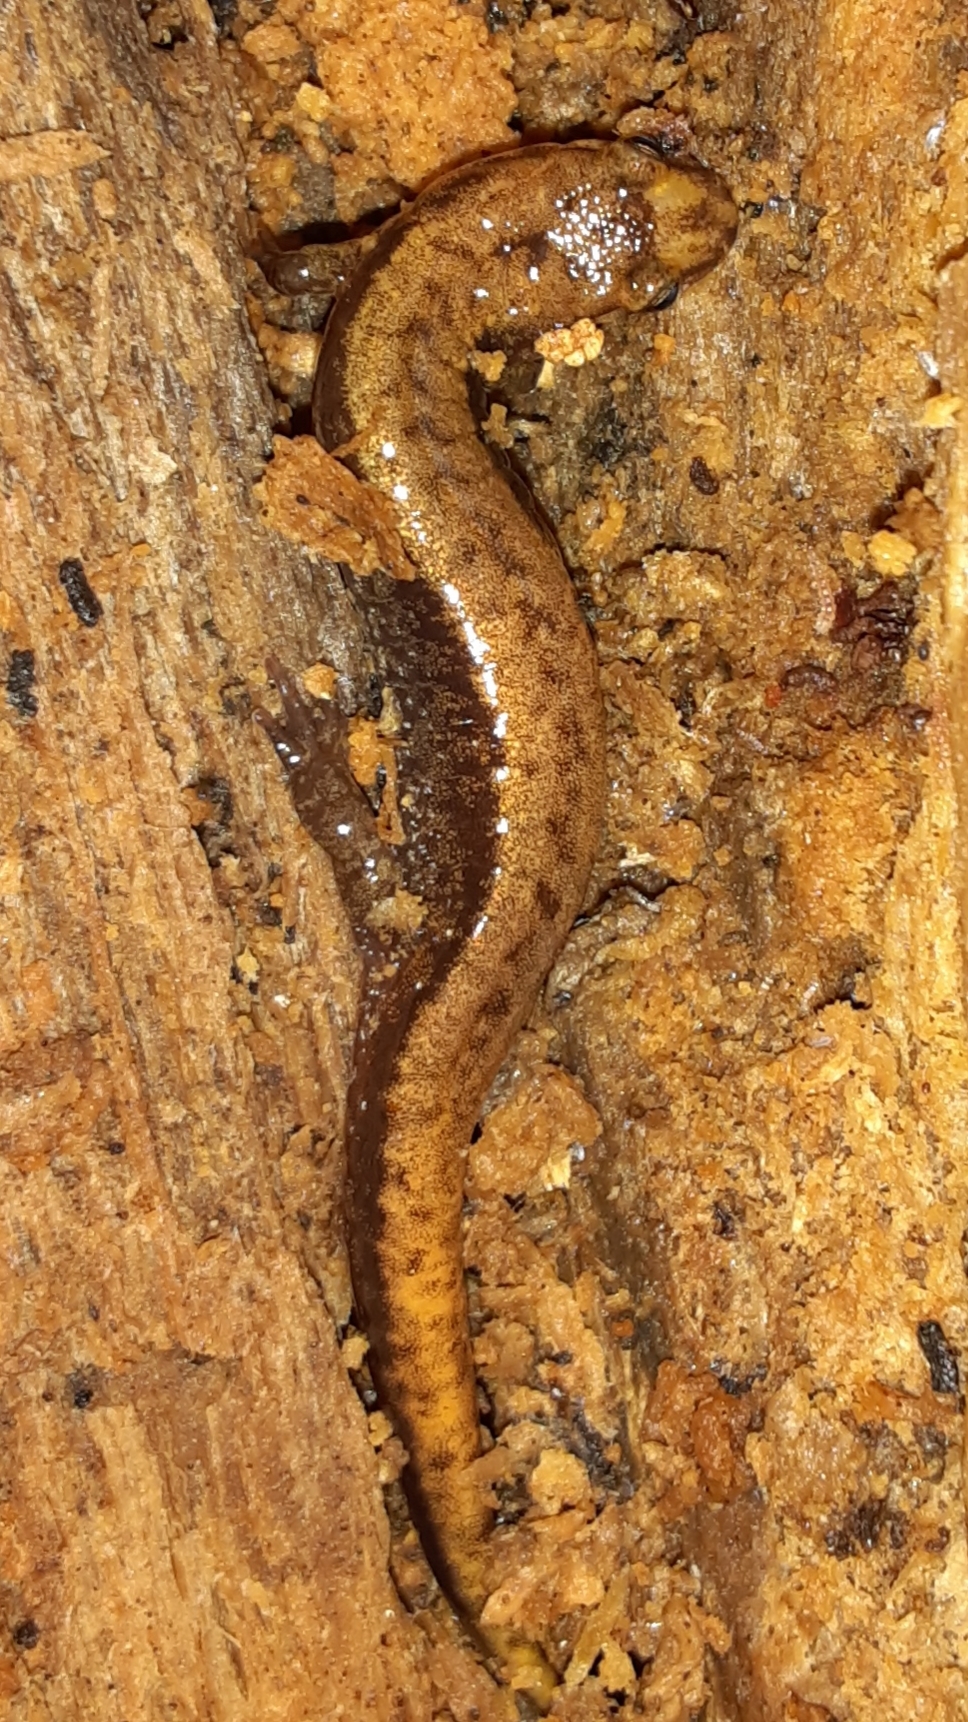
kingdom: Animalia
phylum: Chordata
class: Amphibia
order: Caudata
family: Plethodontidae
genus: Desmognathus
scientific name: Desmognathus ochrophaeus
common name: Allegheny mountain dusky salamander
